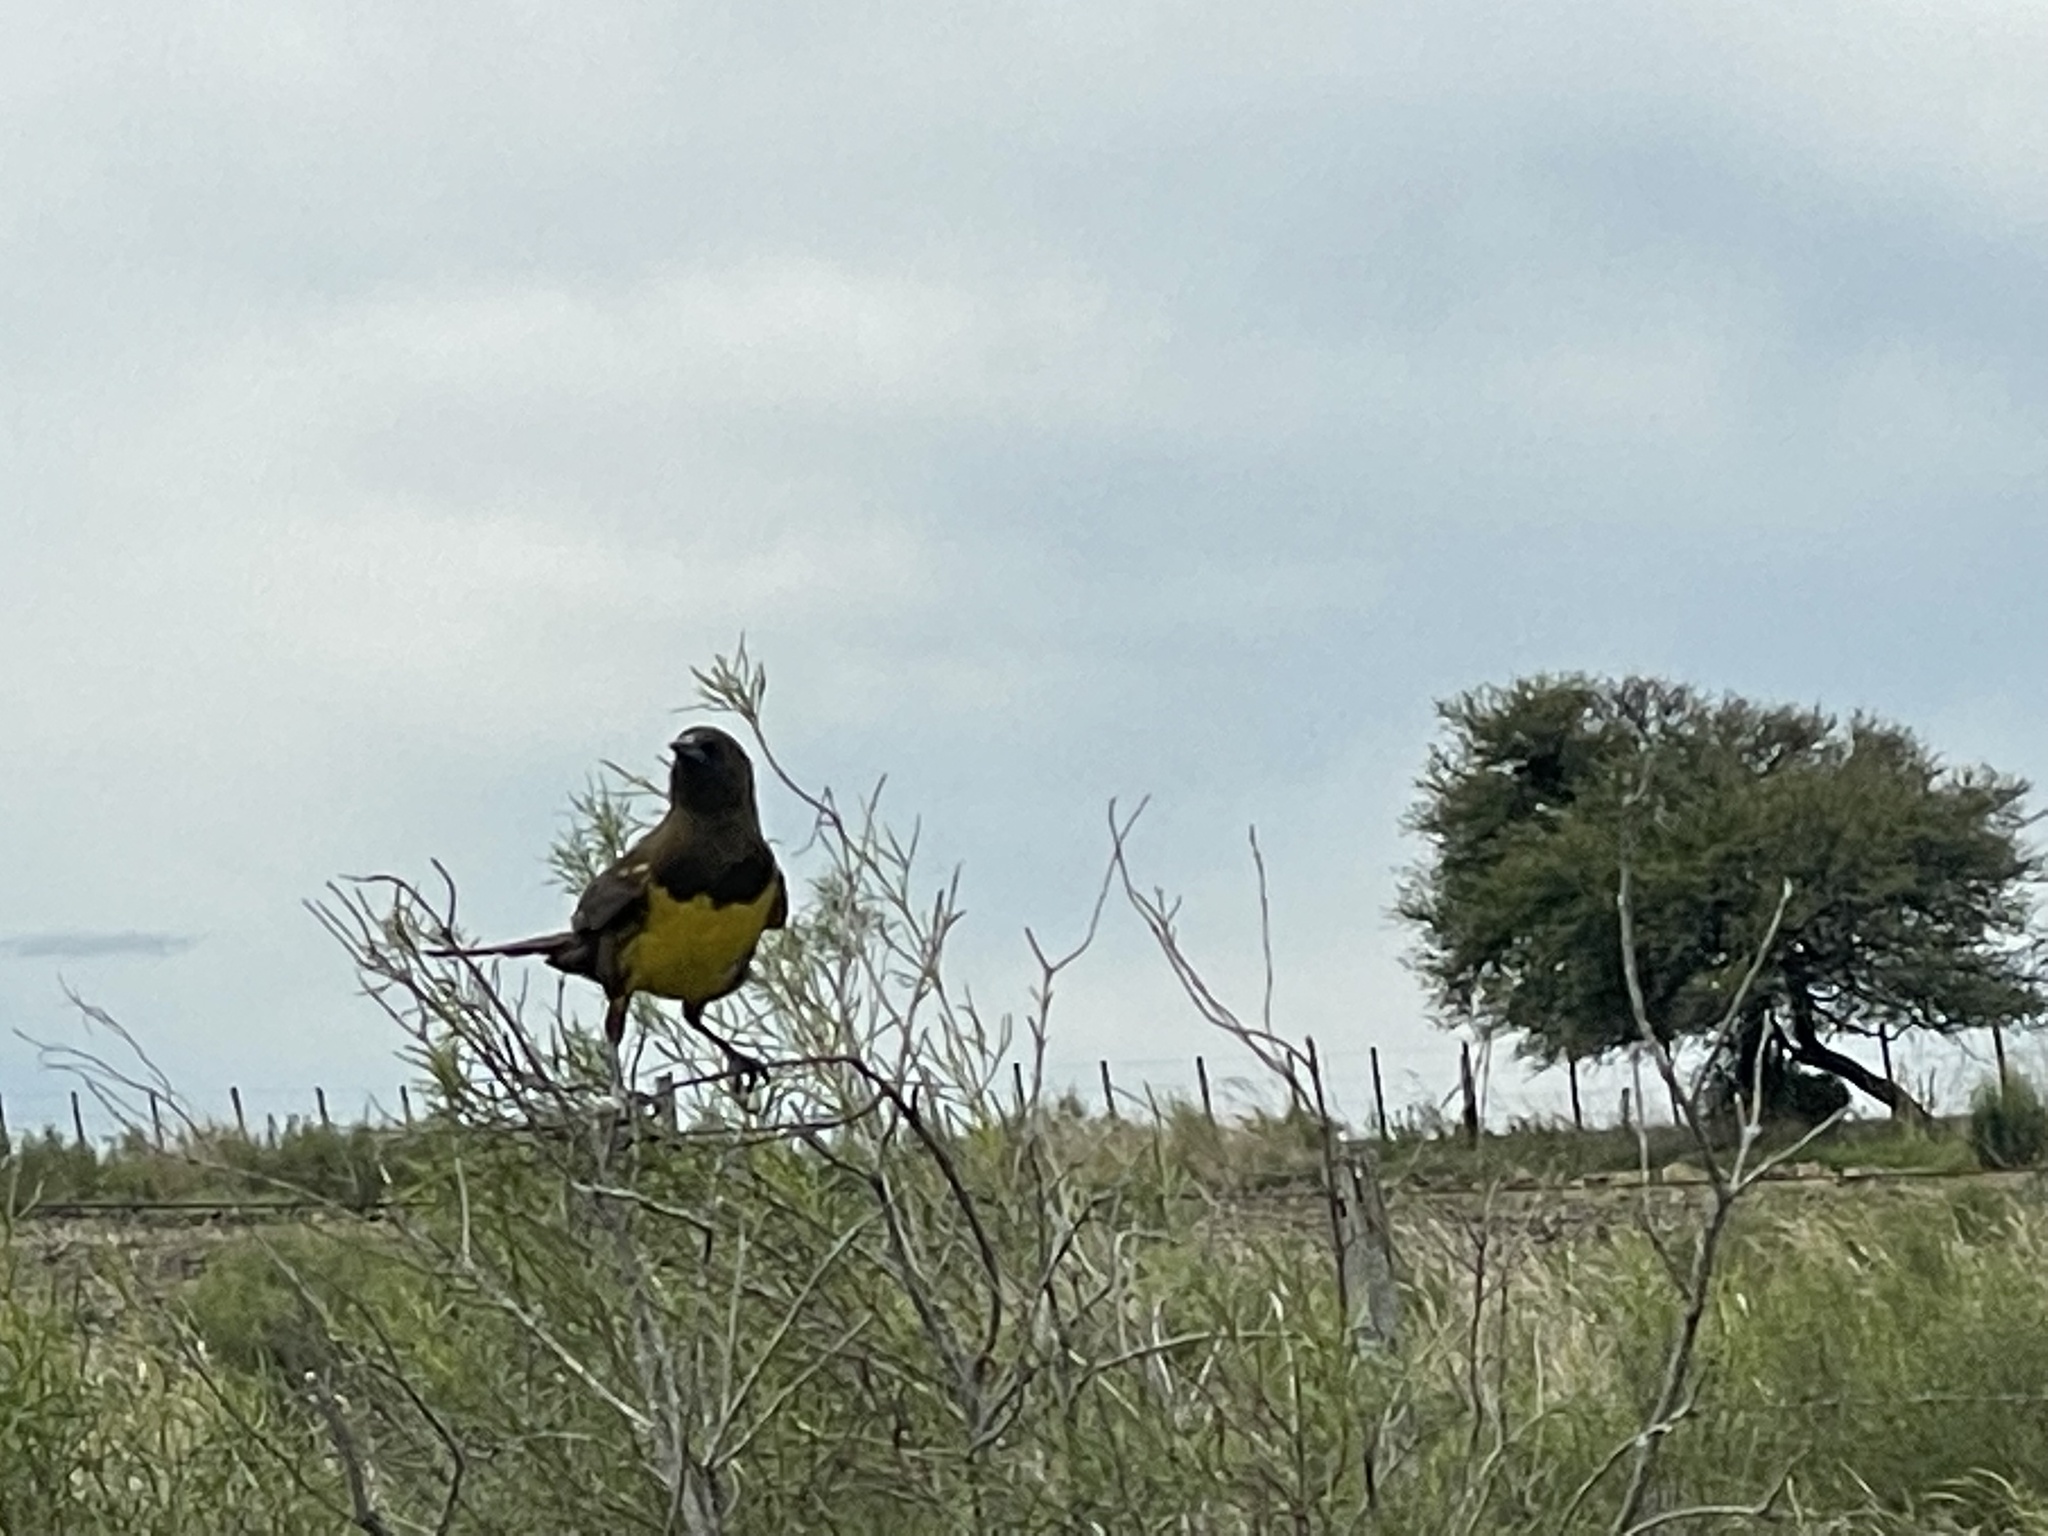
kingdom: Animalia
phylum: Chordata
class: Aves
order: Passeriformes
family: Icteridae
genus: Pseudoleistes
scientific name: Pseudoleistes virescens
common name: Brown-and-yellow marshbird
